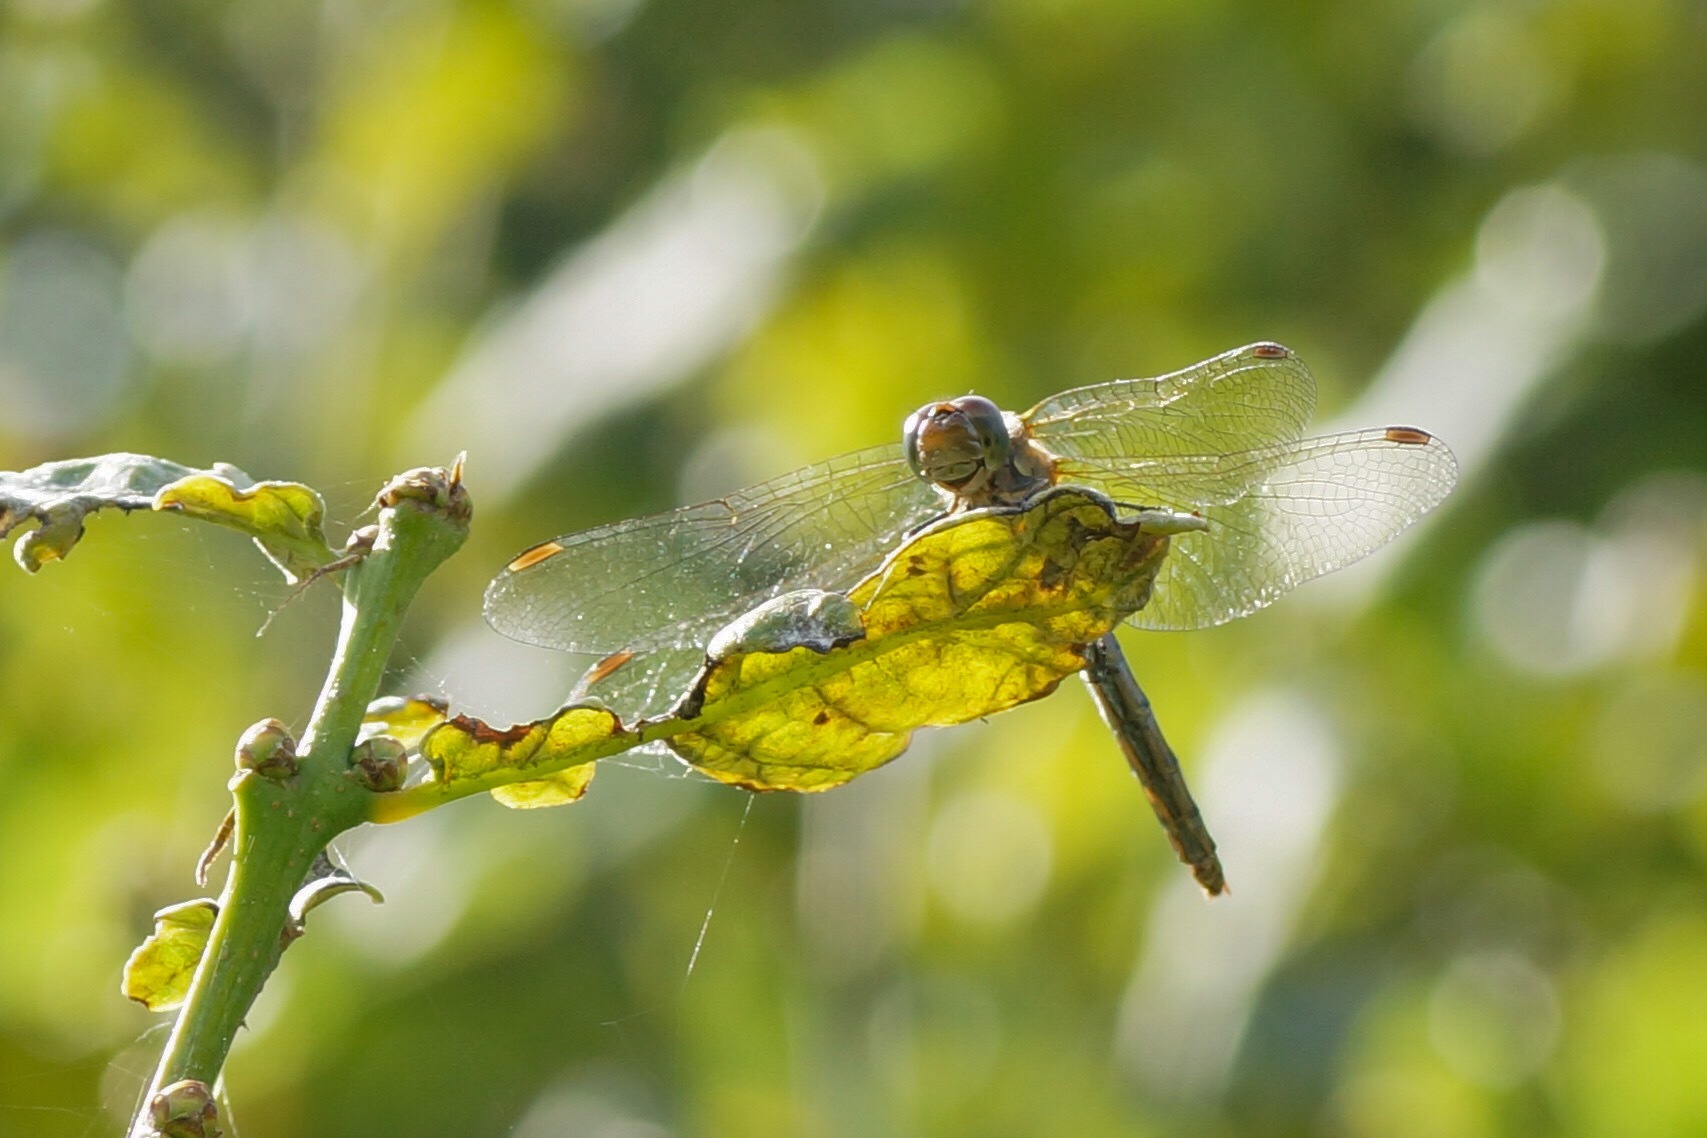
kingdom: Animalia
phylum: Arthropoda
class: Insecta
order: Odonata
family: Libellulidae
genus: Sympetrum
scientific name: Sympetrum striolatum
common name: Common darter
